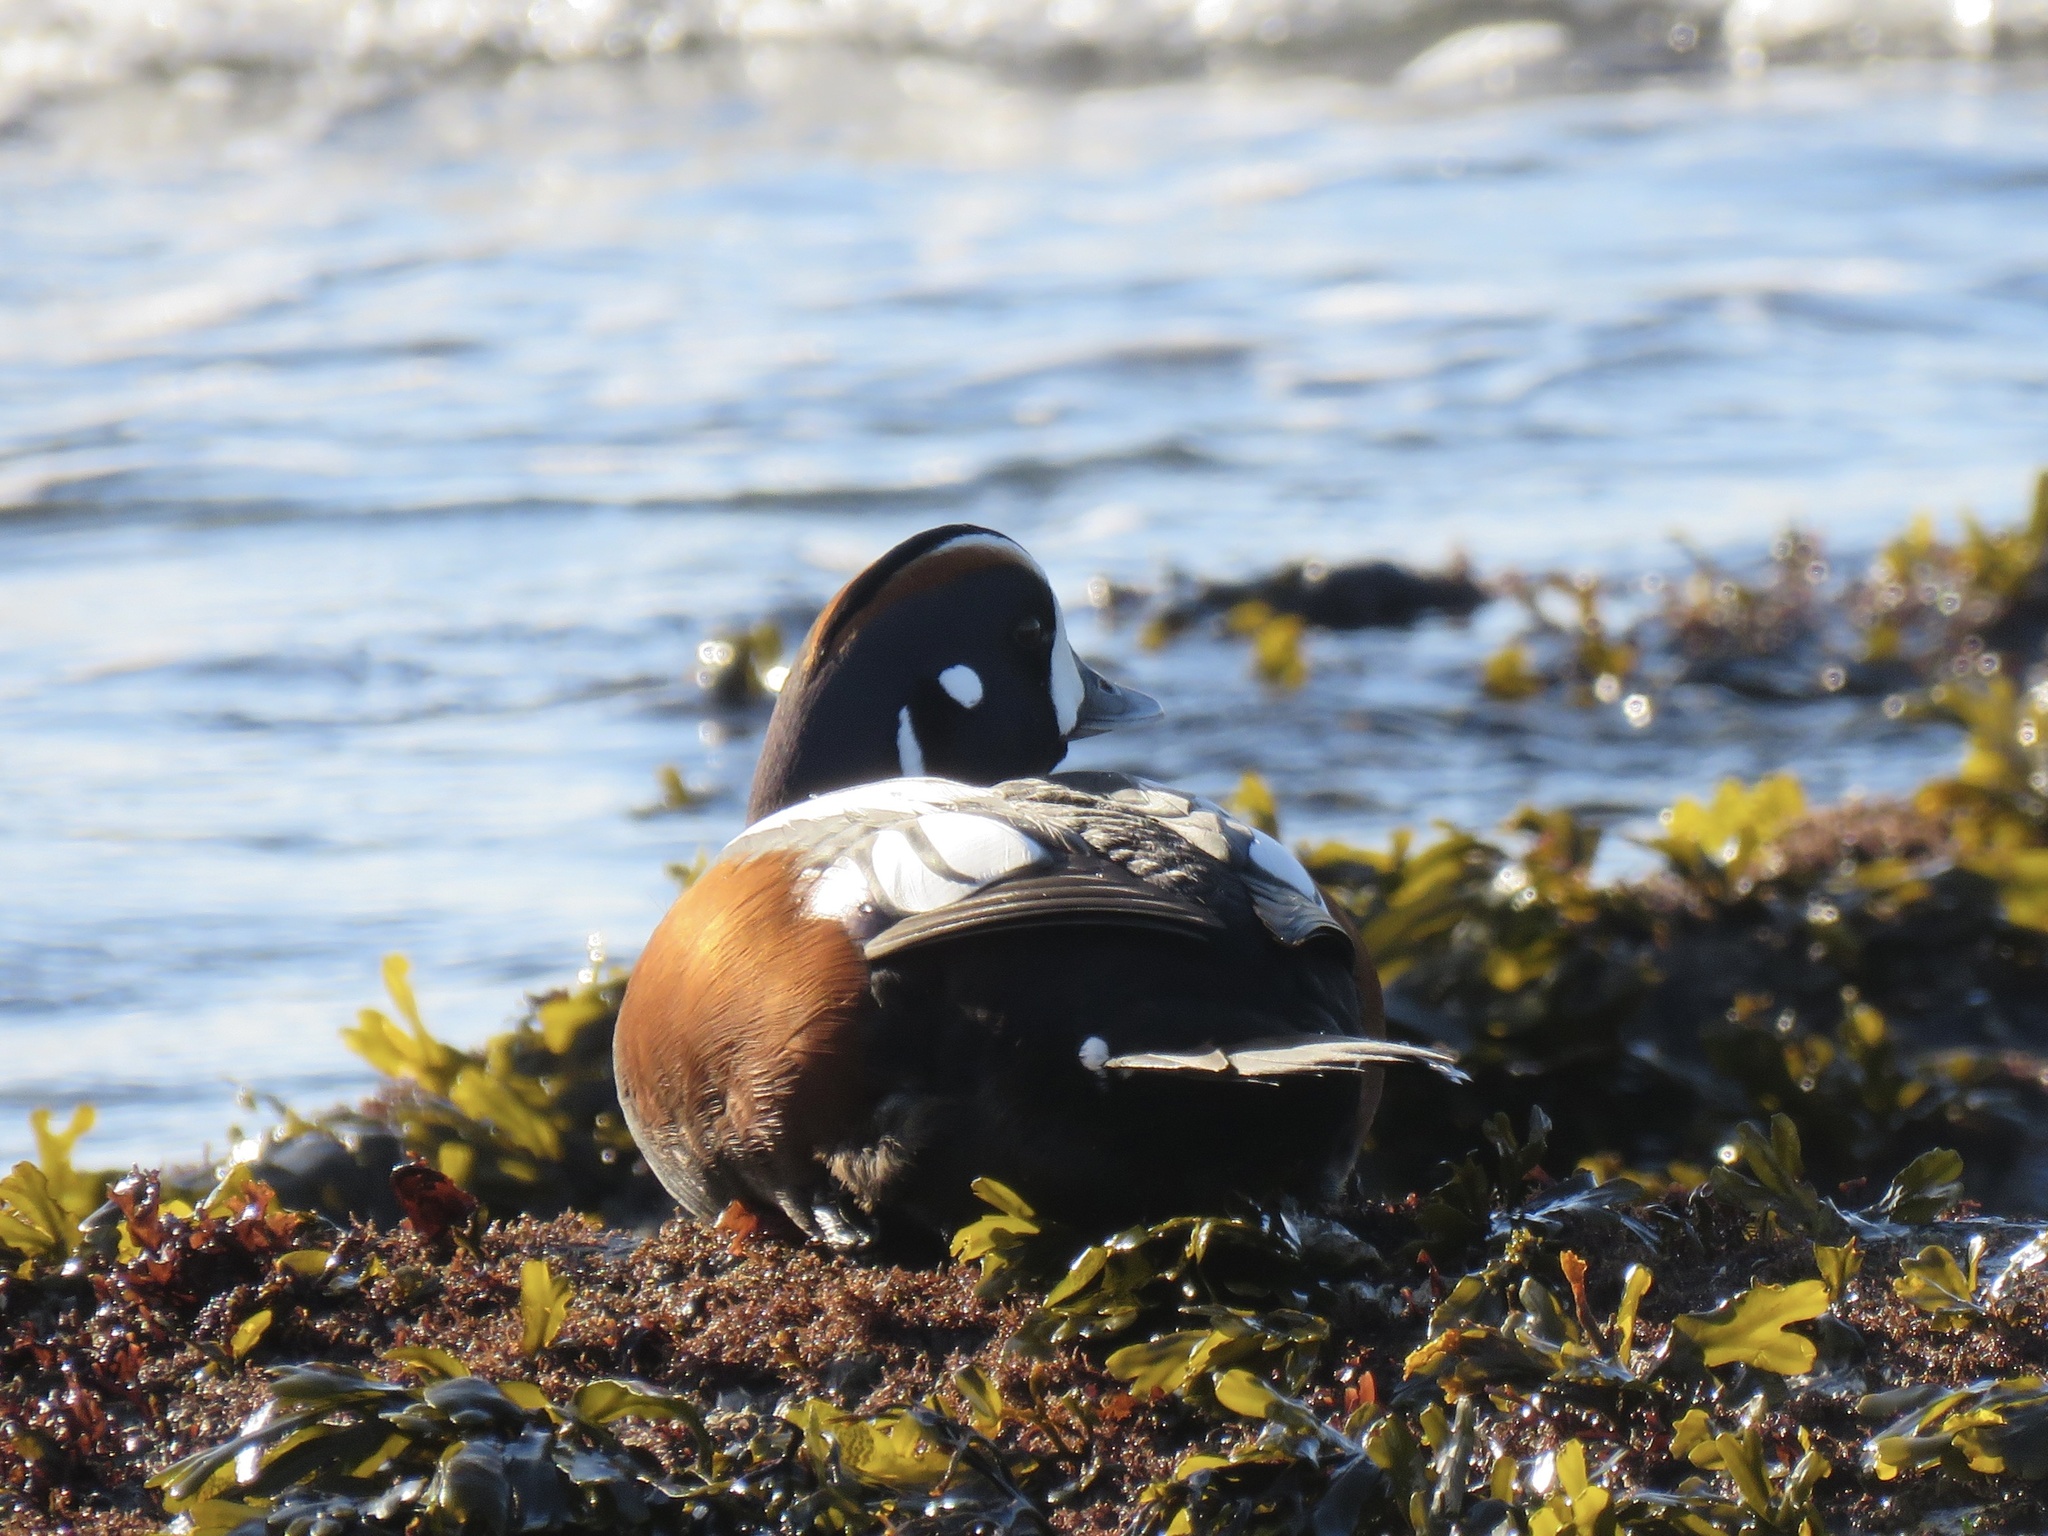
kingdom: Animalia
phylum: Chordata
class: Aves
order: Anseriformes
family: Anatidae
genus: Histrionicus
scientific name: Histrionicus histrionicus
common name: Harlequin duck
